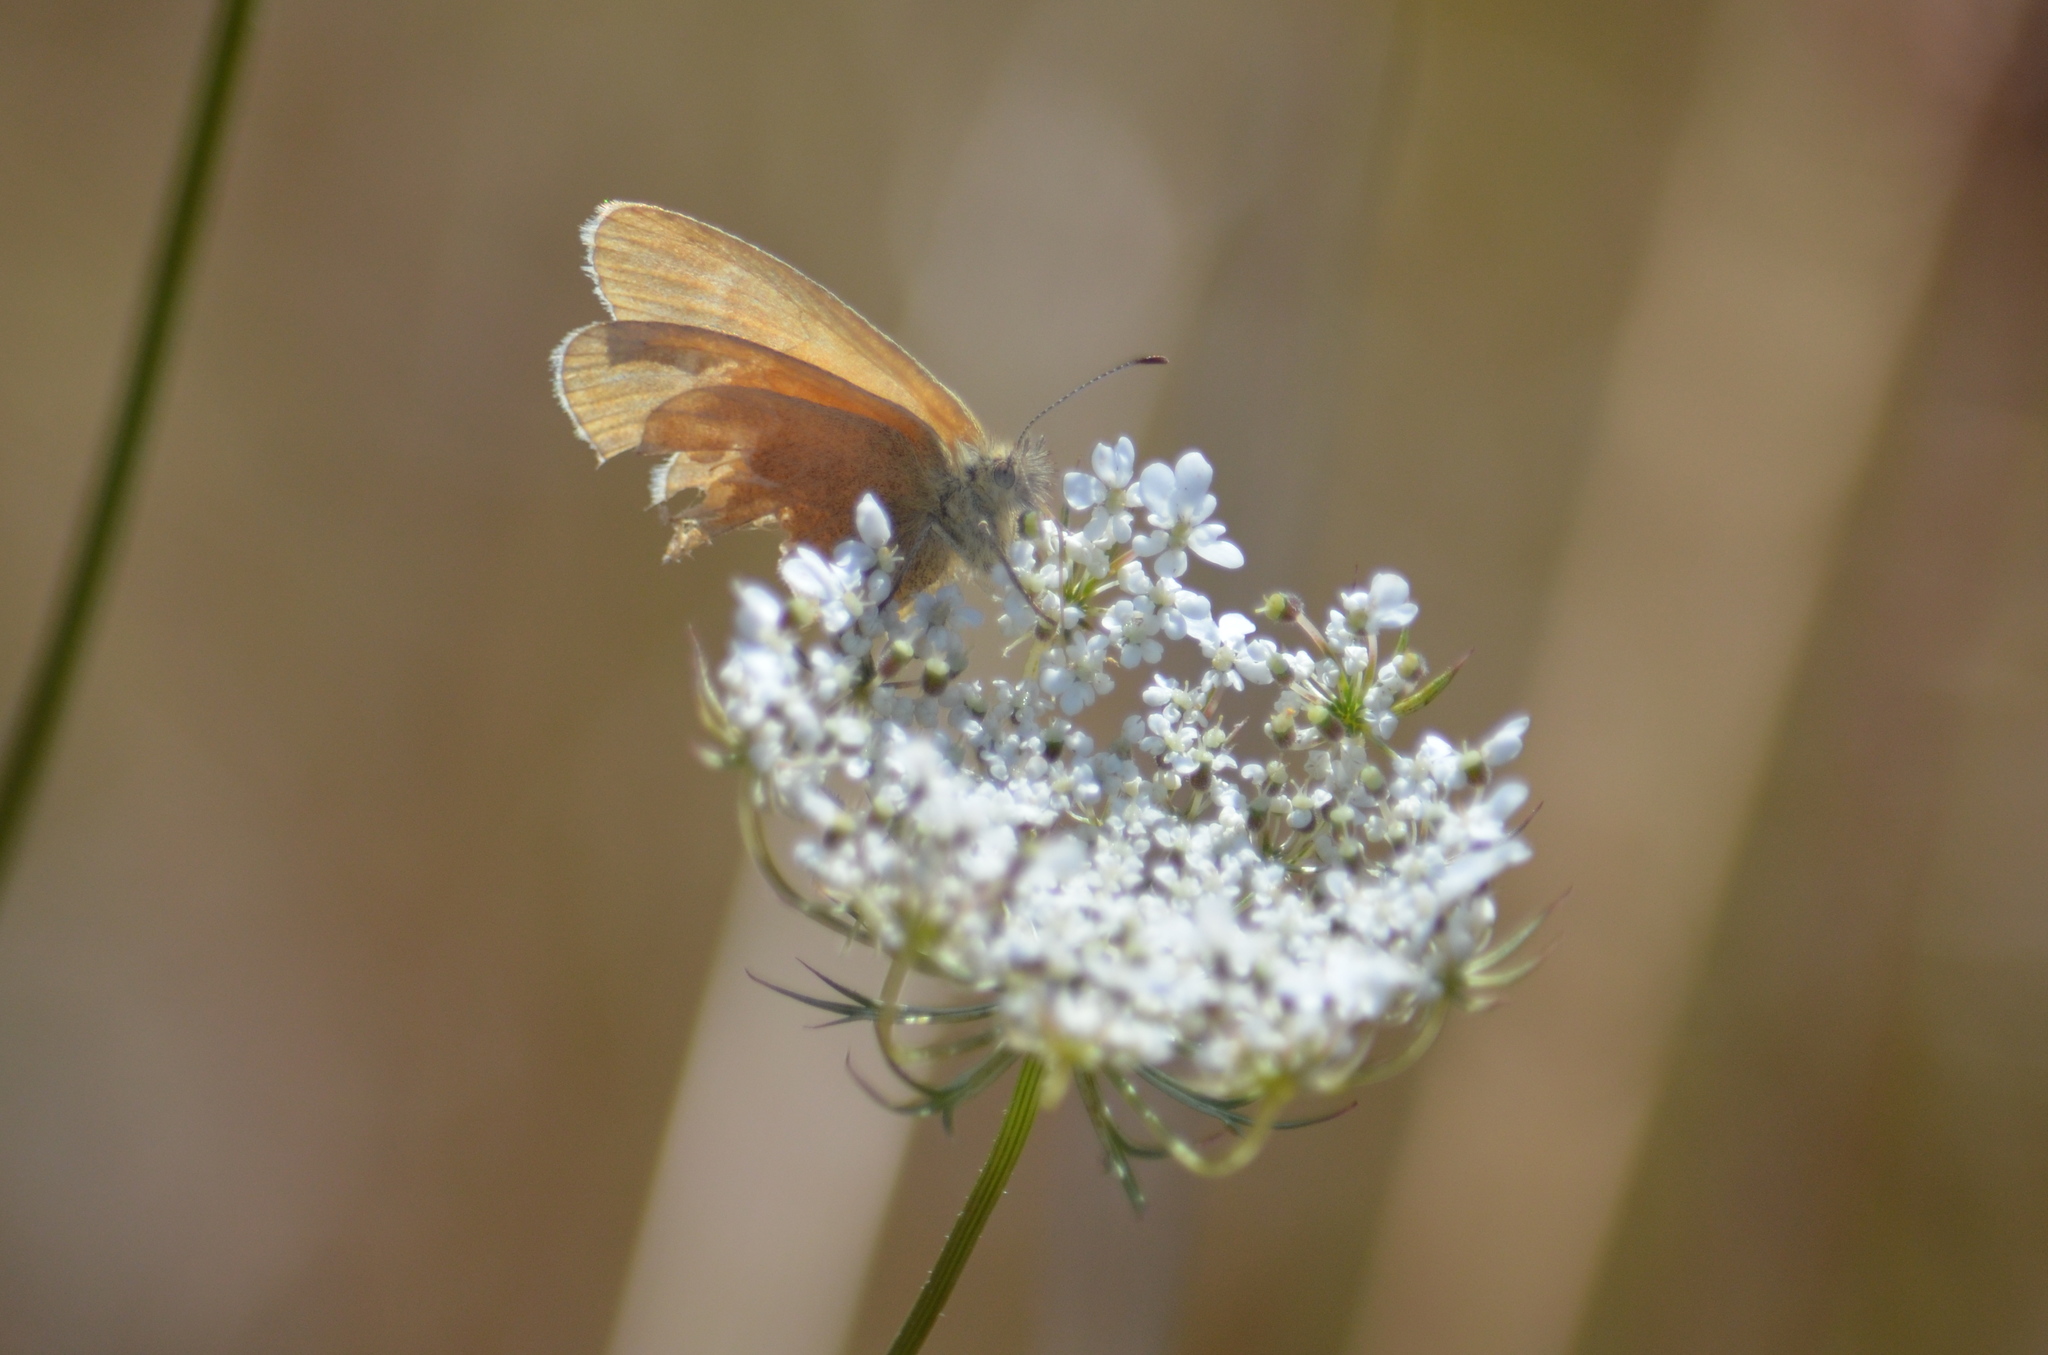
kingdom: Animalia
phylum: Arthropoda
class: Insecta
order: Lepidoptera
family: Nymphalidae
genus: Coenonympha
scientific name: Coenonympha california
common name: Common ringlet
